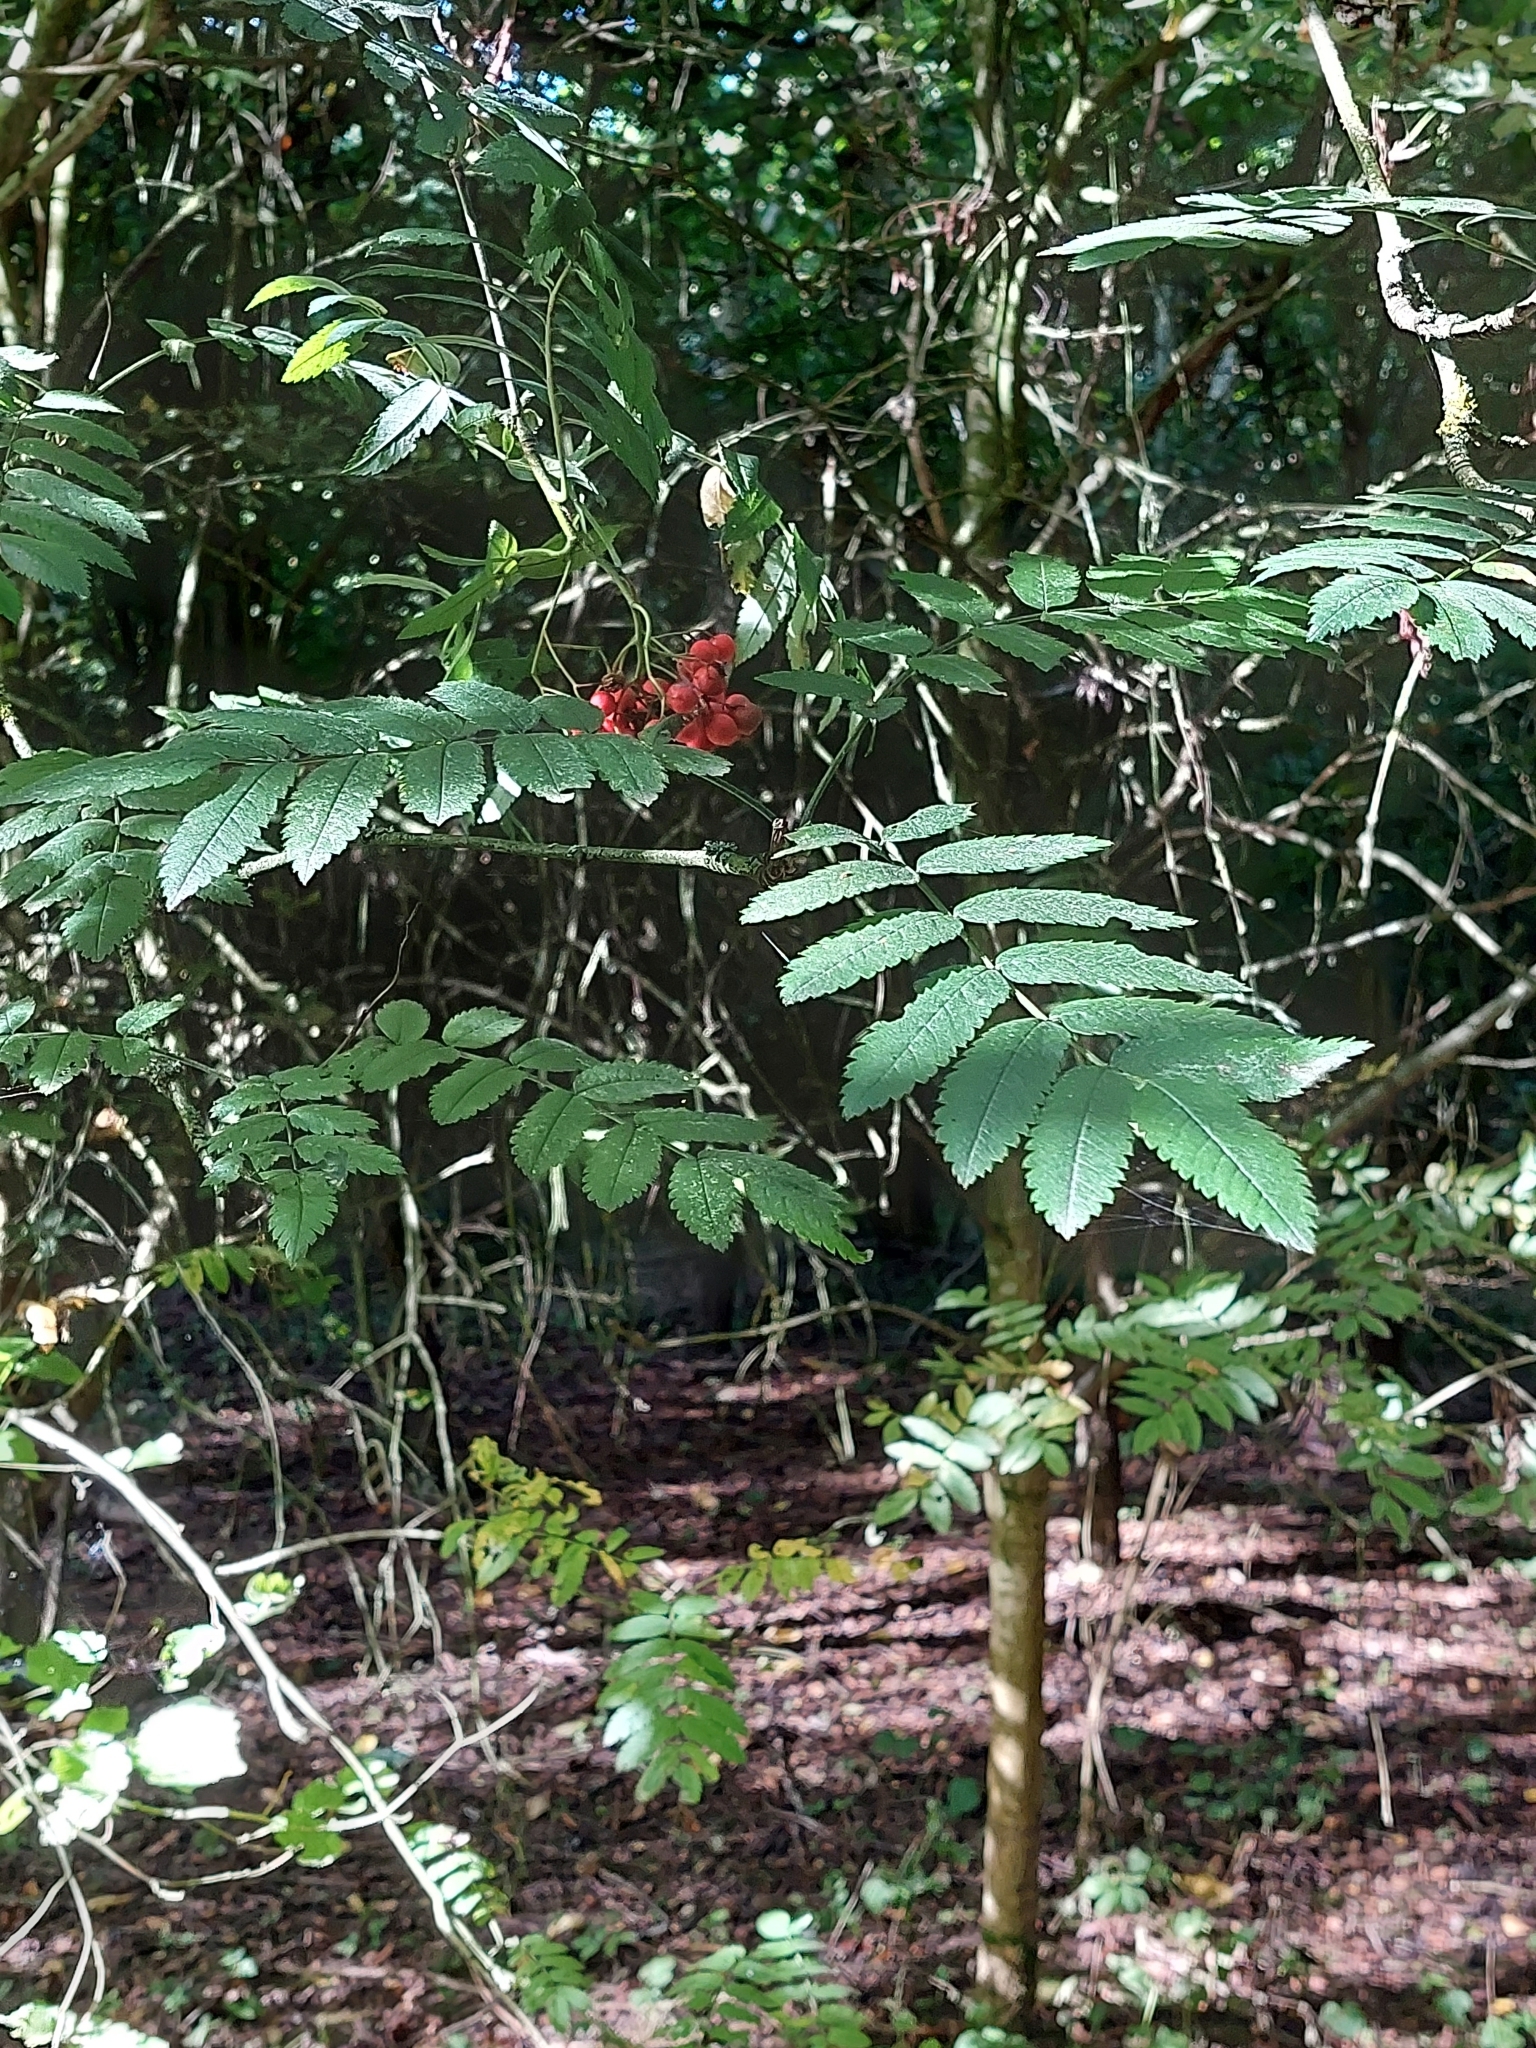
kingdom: Plantae
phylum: Tracheophyta
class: Magnoliopsida
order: Rosales
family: Rosaceae
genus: Sorbus
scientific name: Sorbus aucuparia
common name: Rowan
